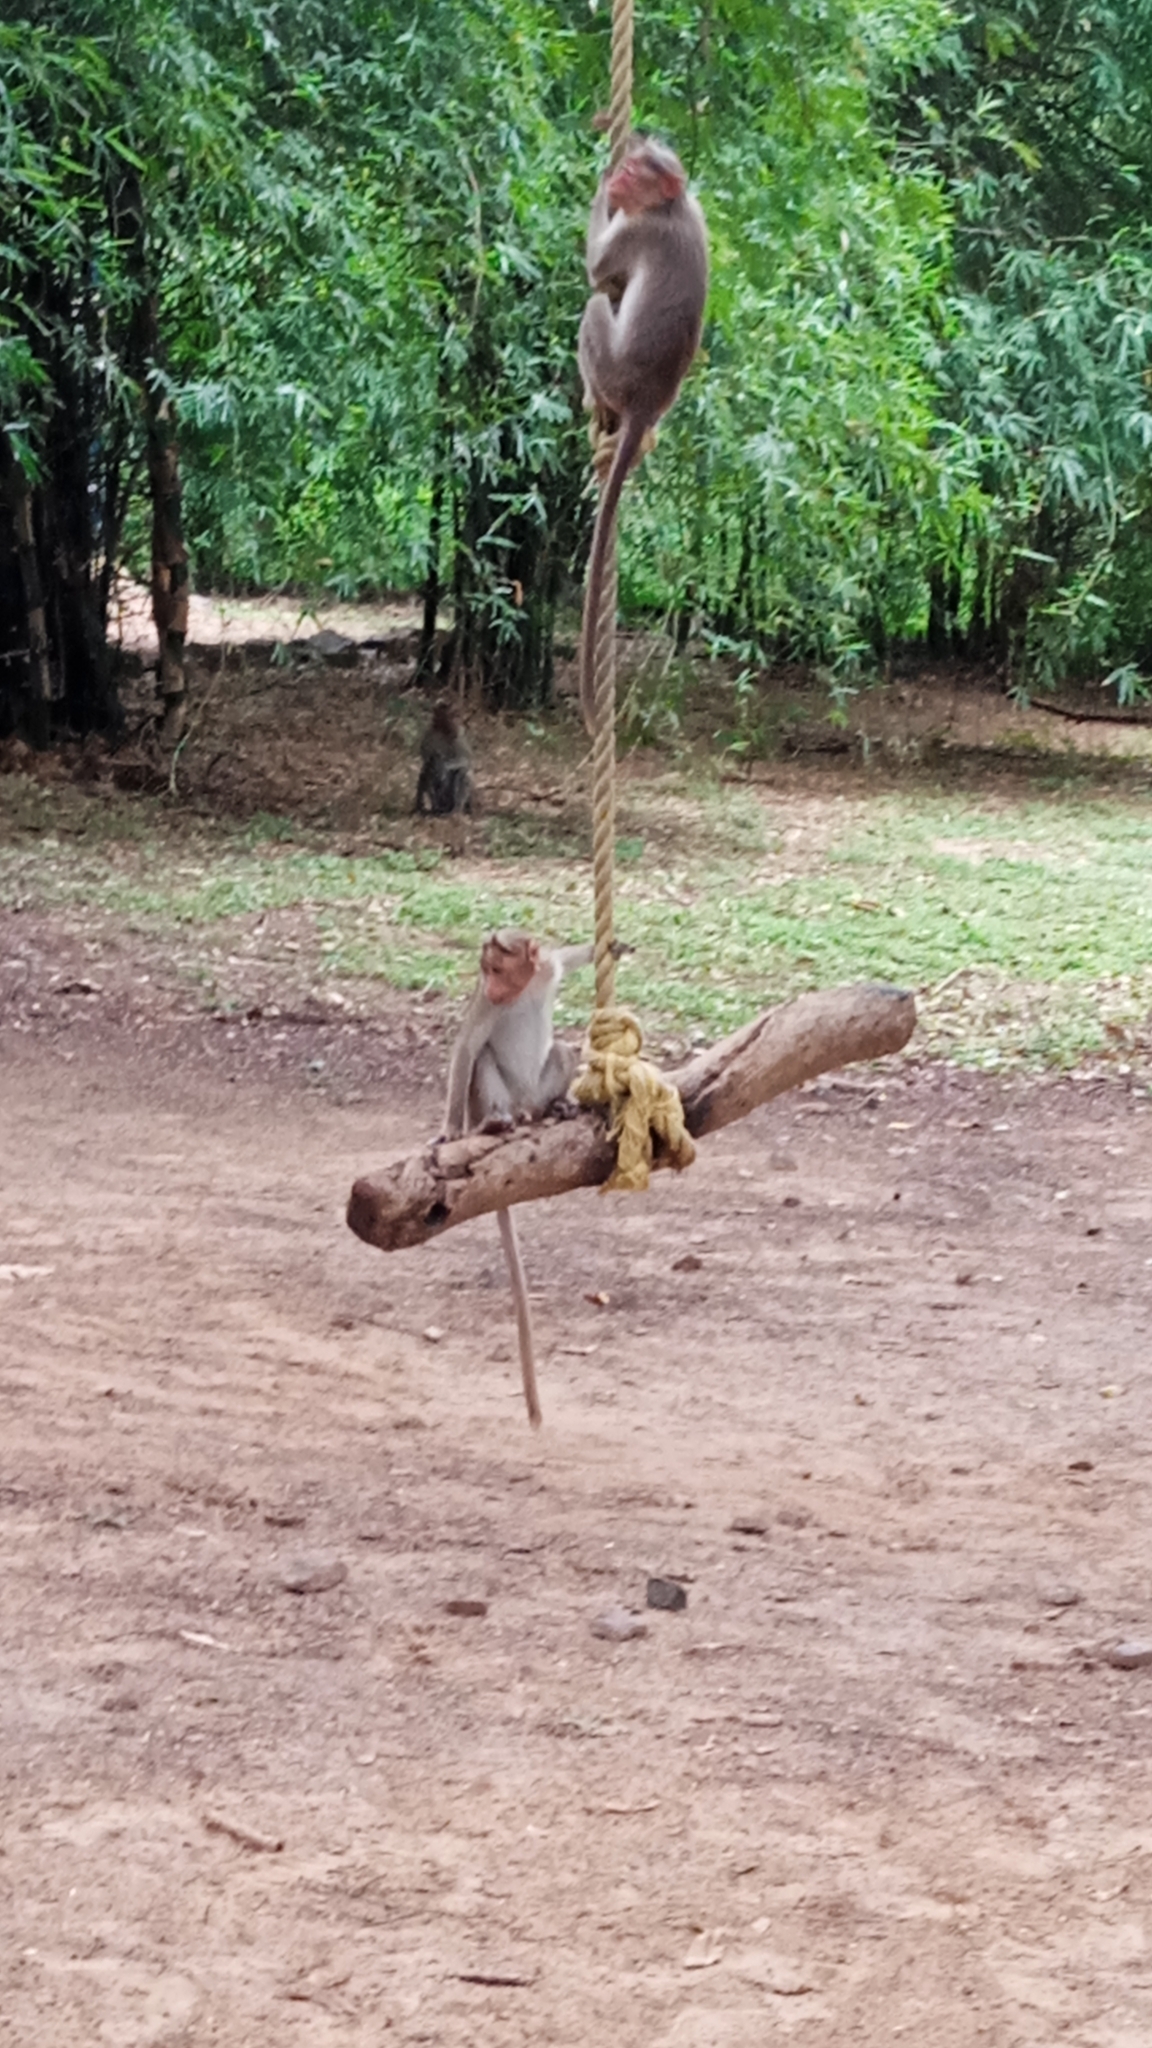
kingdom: Animalia
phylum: Chordata
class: Mammalia
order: Primates
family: Cercopithecidae
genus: Macaca
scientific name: Macaca radiata
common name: Bonnet macaque
